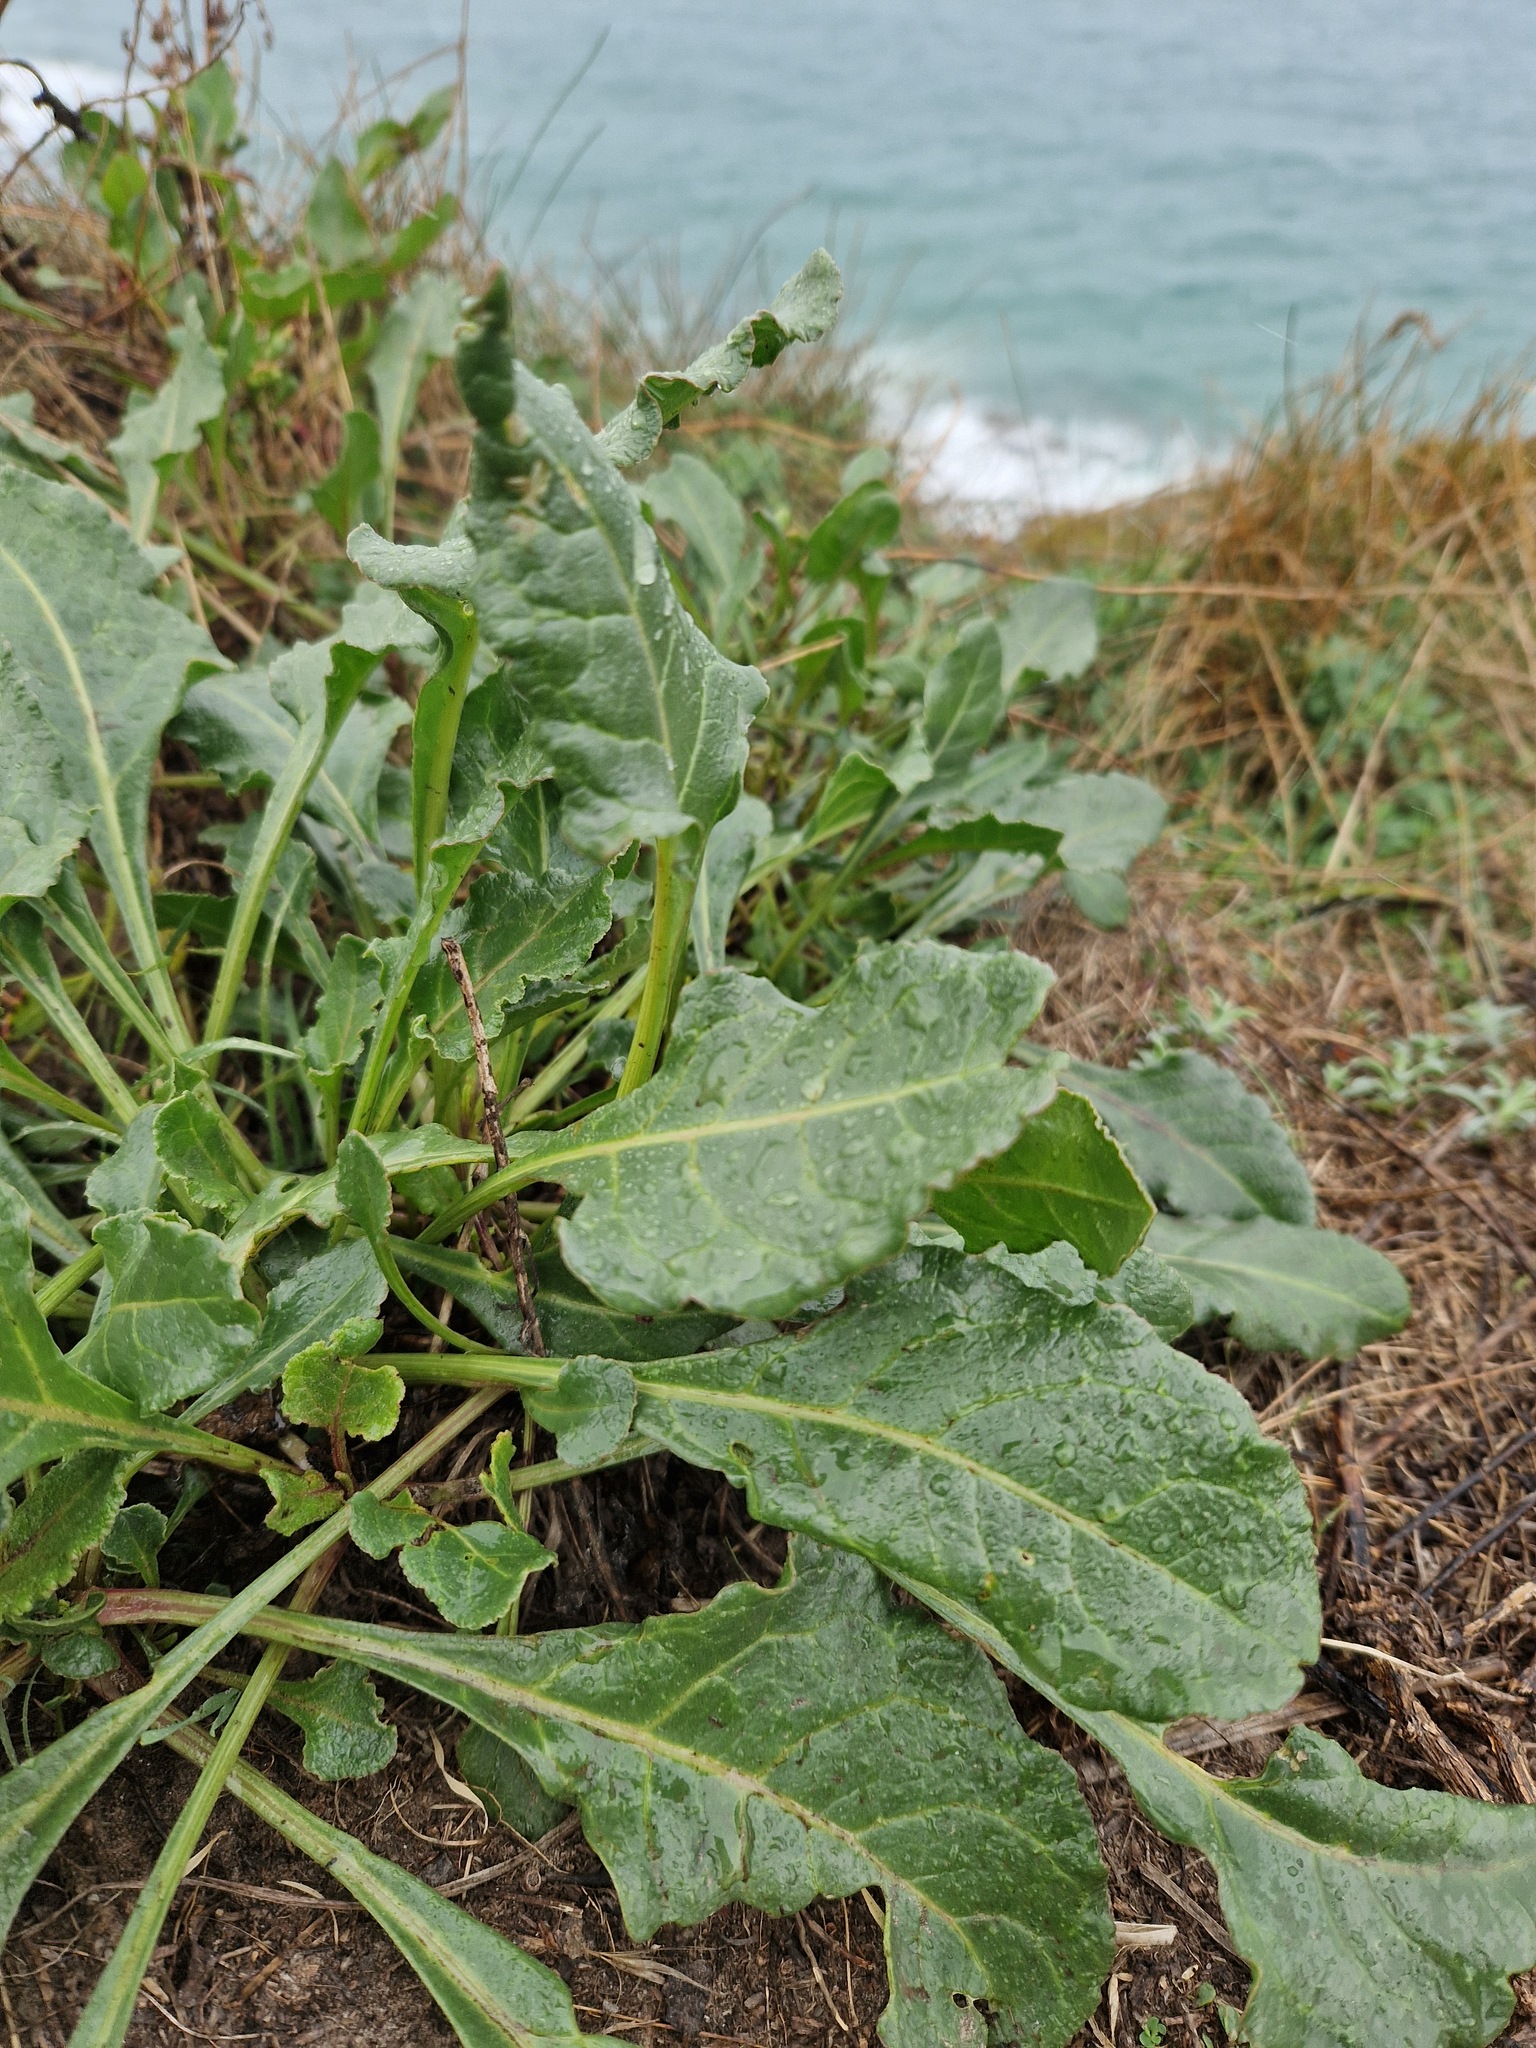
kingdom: Plantae
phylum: Tracheophyta
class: Magnoliopsida
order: Caryophyllales
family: Amaranthaceae
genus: Beta
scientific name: Beta vulgaris
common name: Beet
